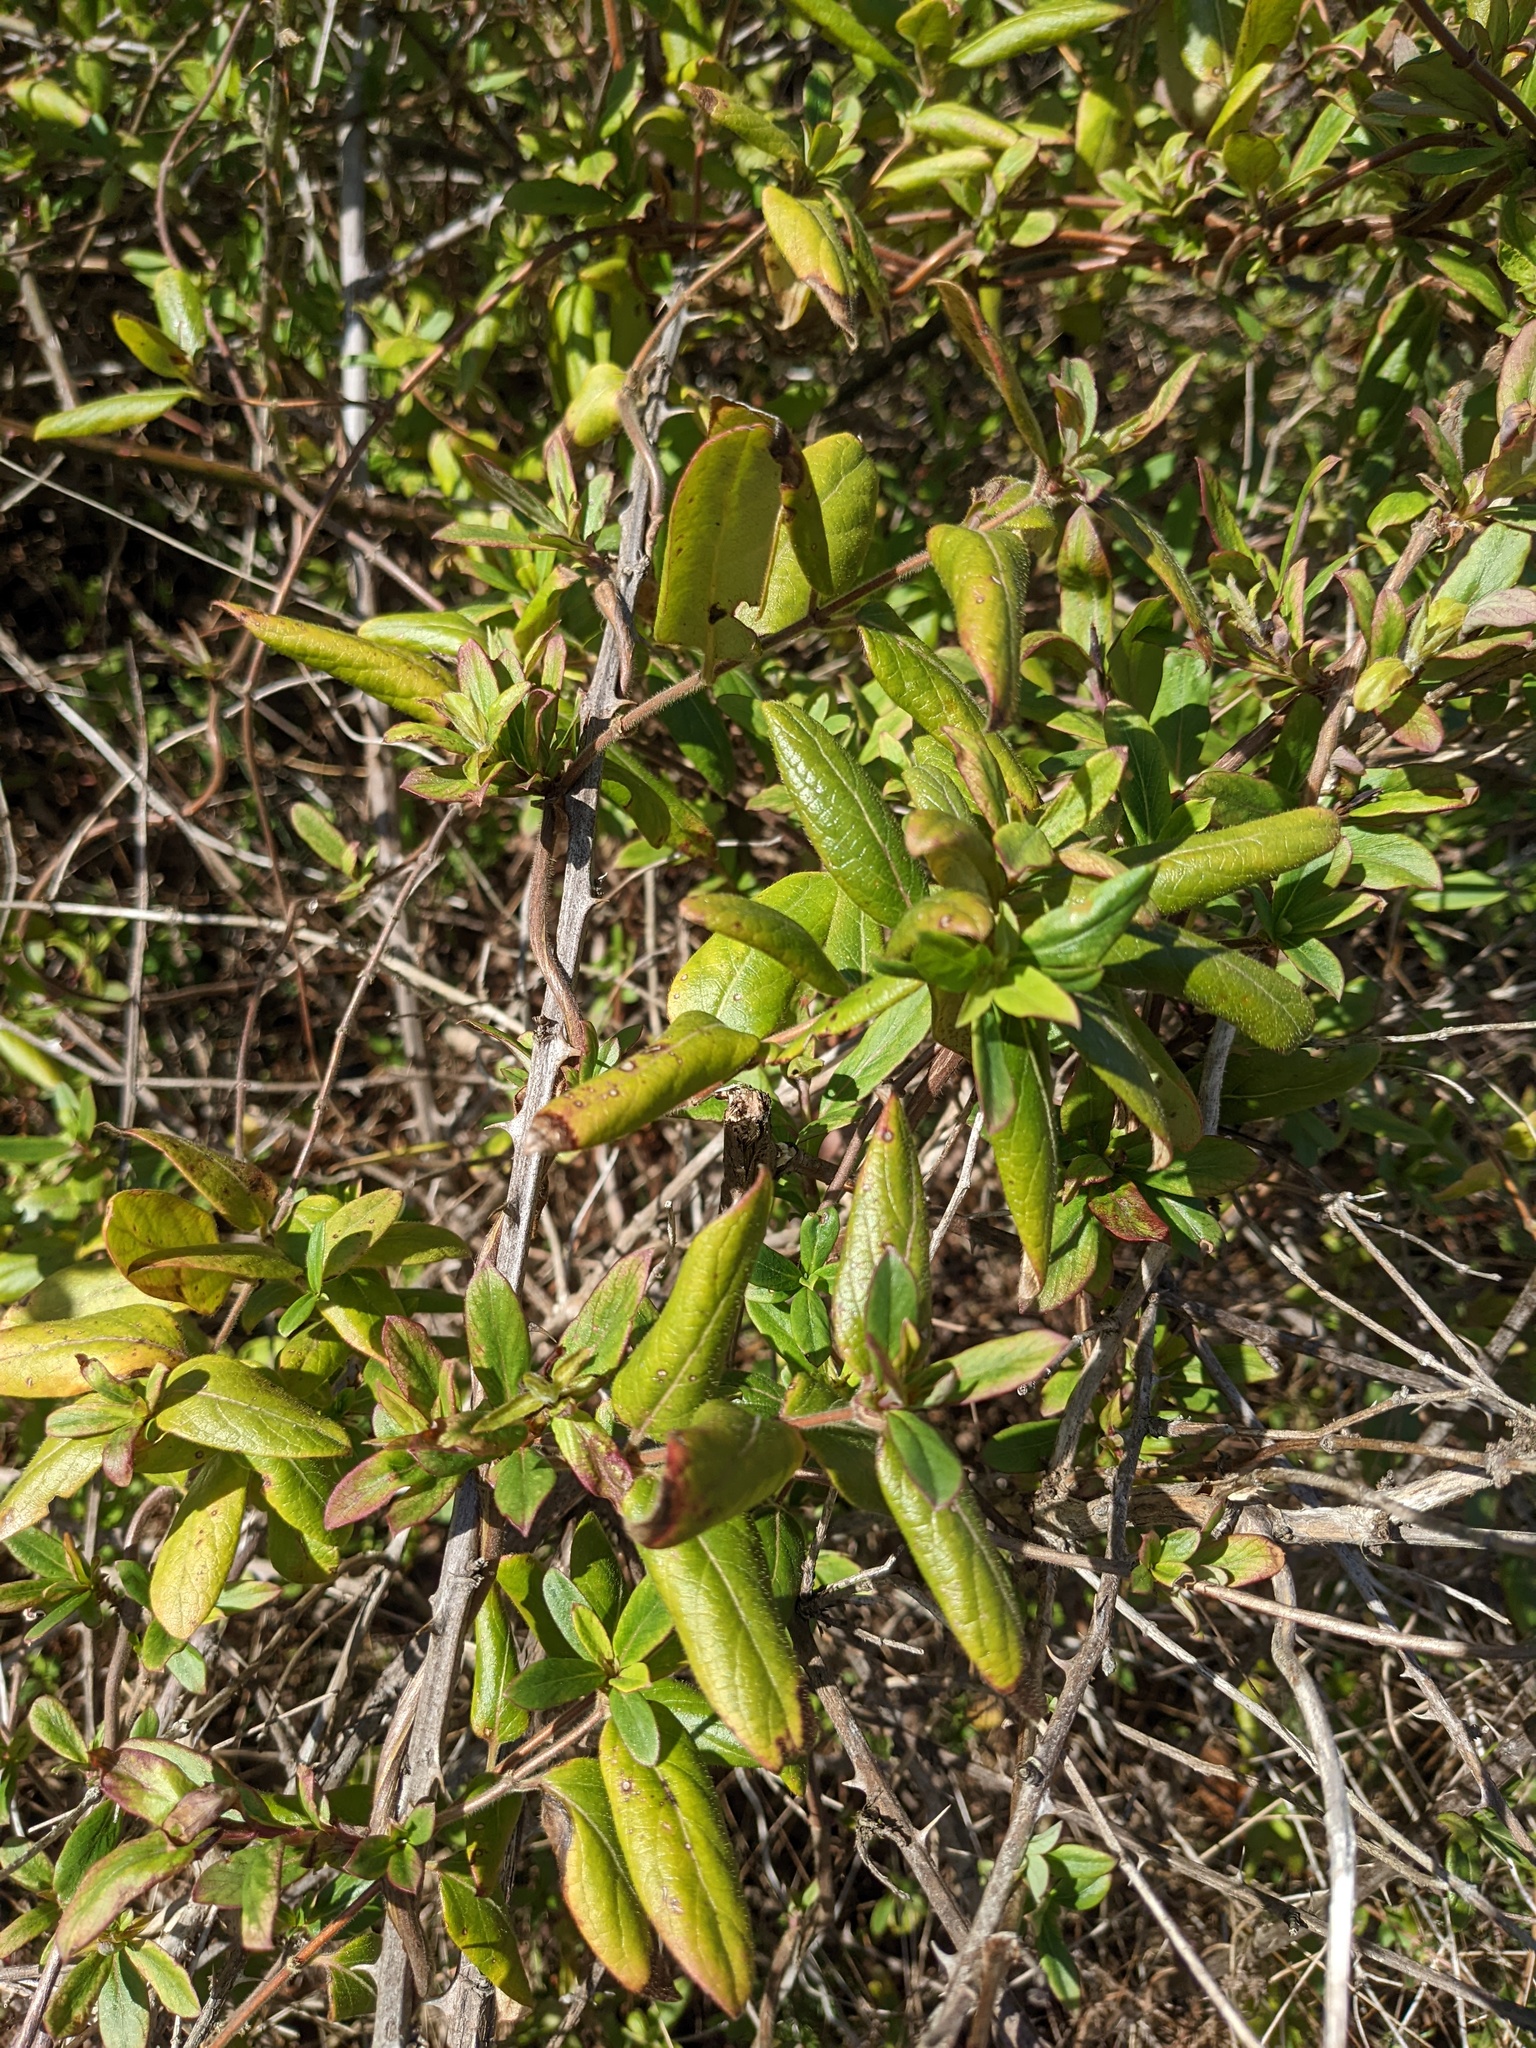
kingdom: Plantae
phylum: Tracheophyta
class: Magnoliopsida
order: Dipsacales
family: Caprifoliaceae
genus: Lonicera
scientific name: Lonicera japonica
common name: Japanese honeysuckle
